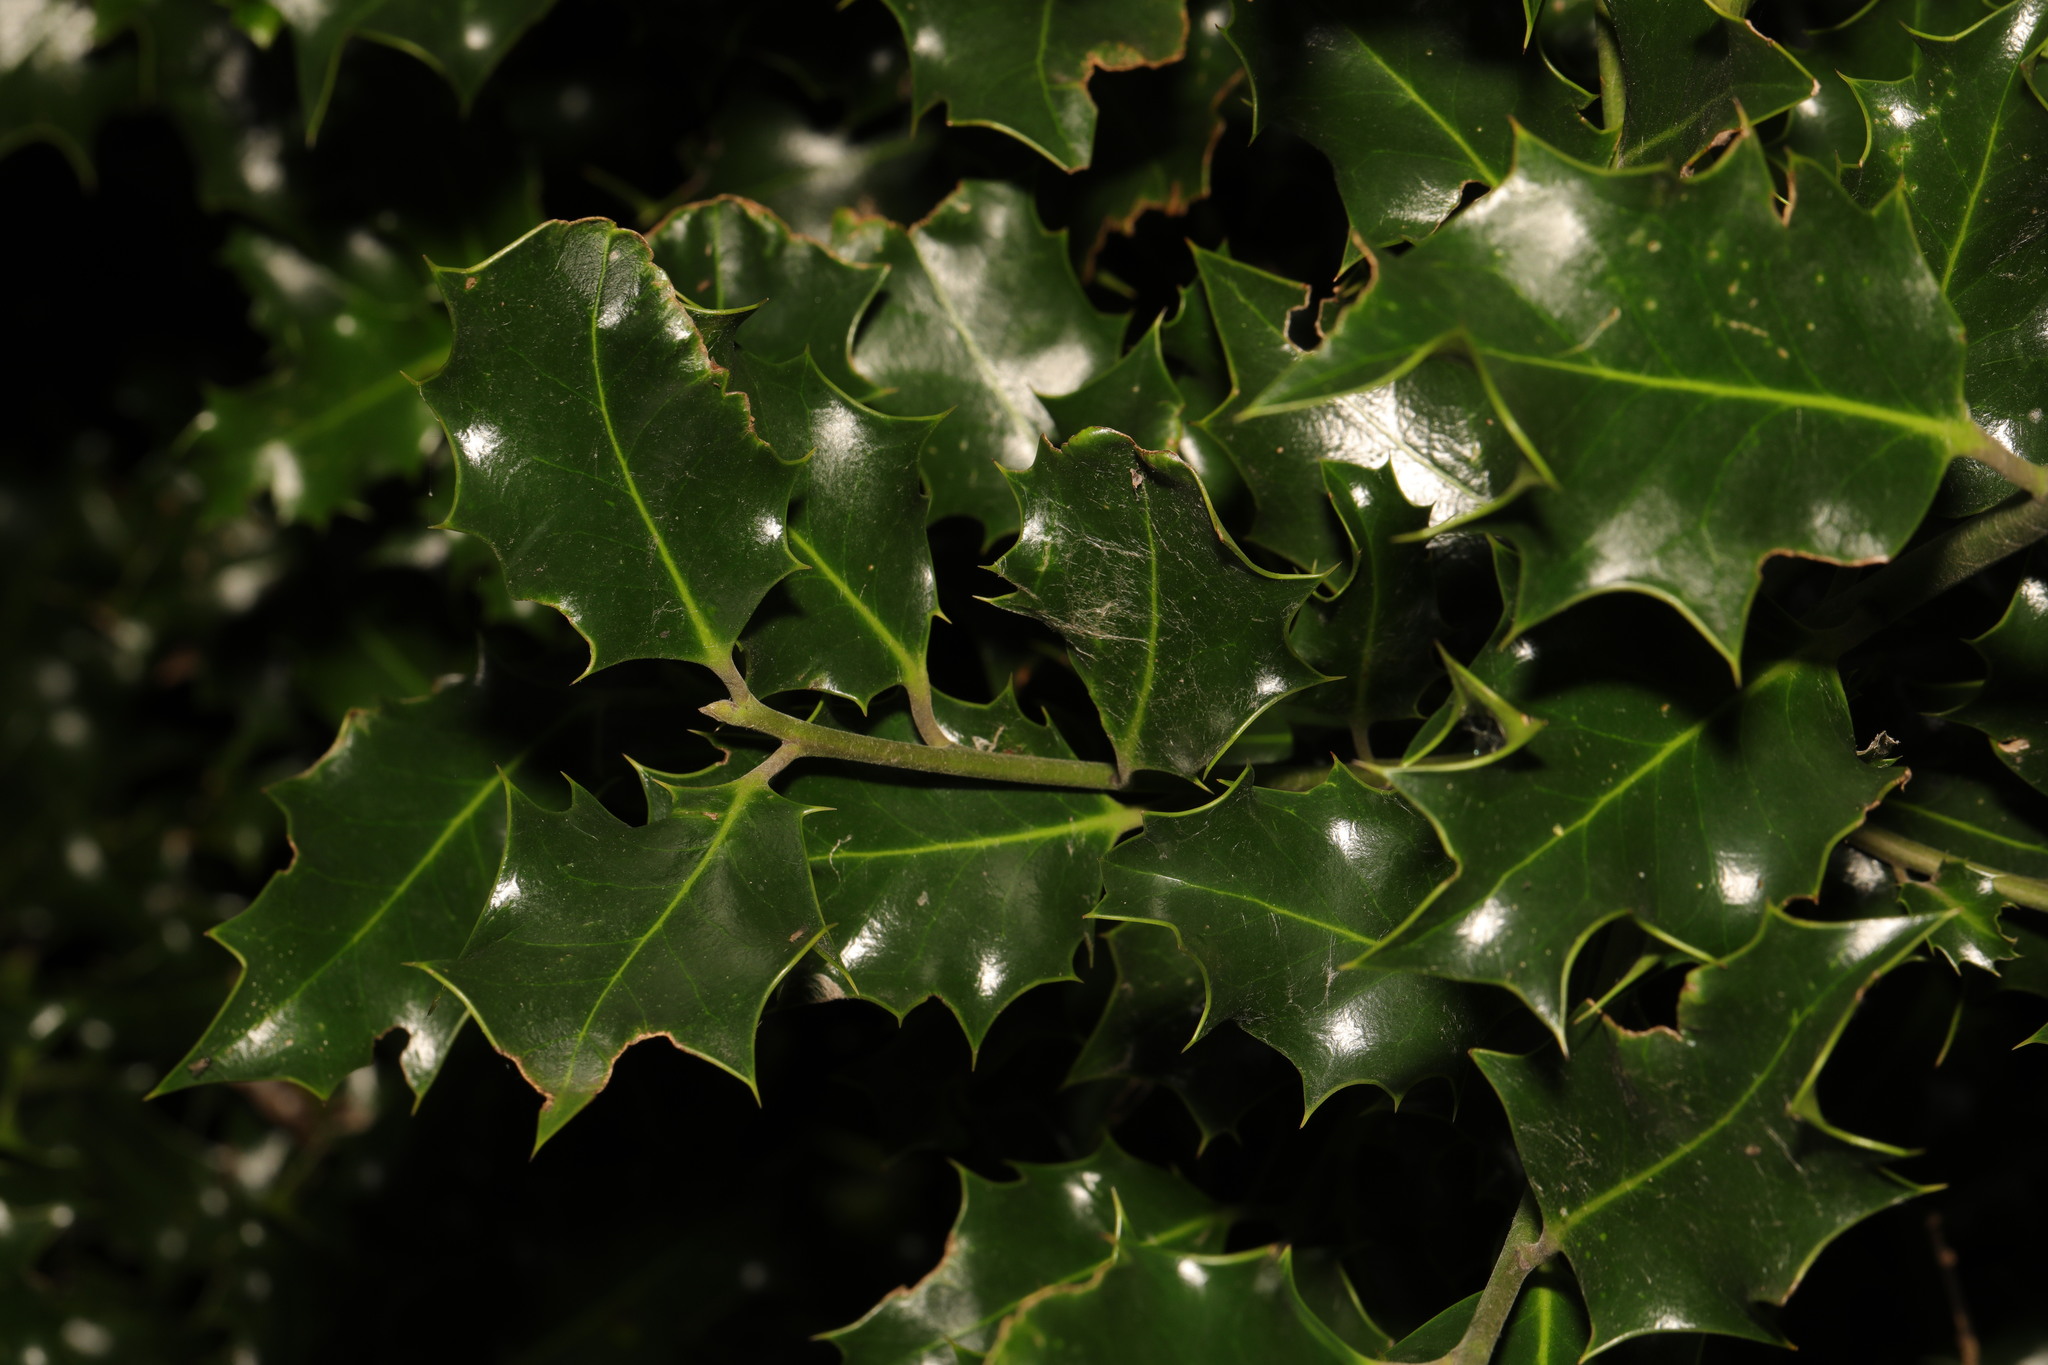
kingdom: Plantae
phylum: Tracheophyta
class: Magnoliopsida
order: Aquifoliales
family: Aquifoliaceae
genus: Ilex
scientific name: Ilex aquifolium
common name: English holly
